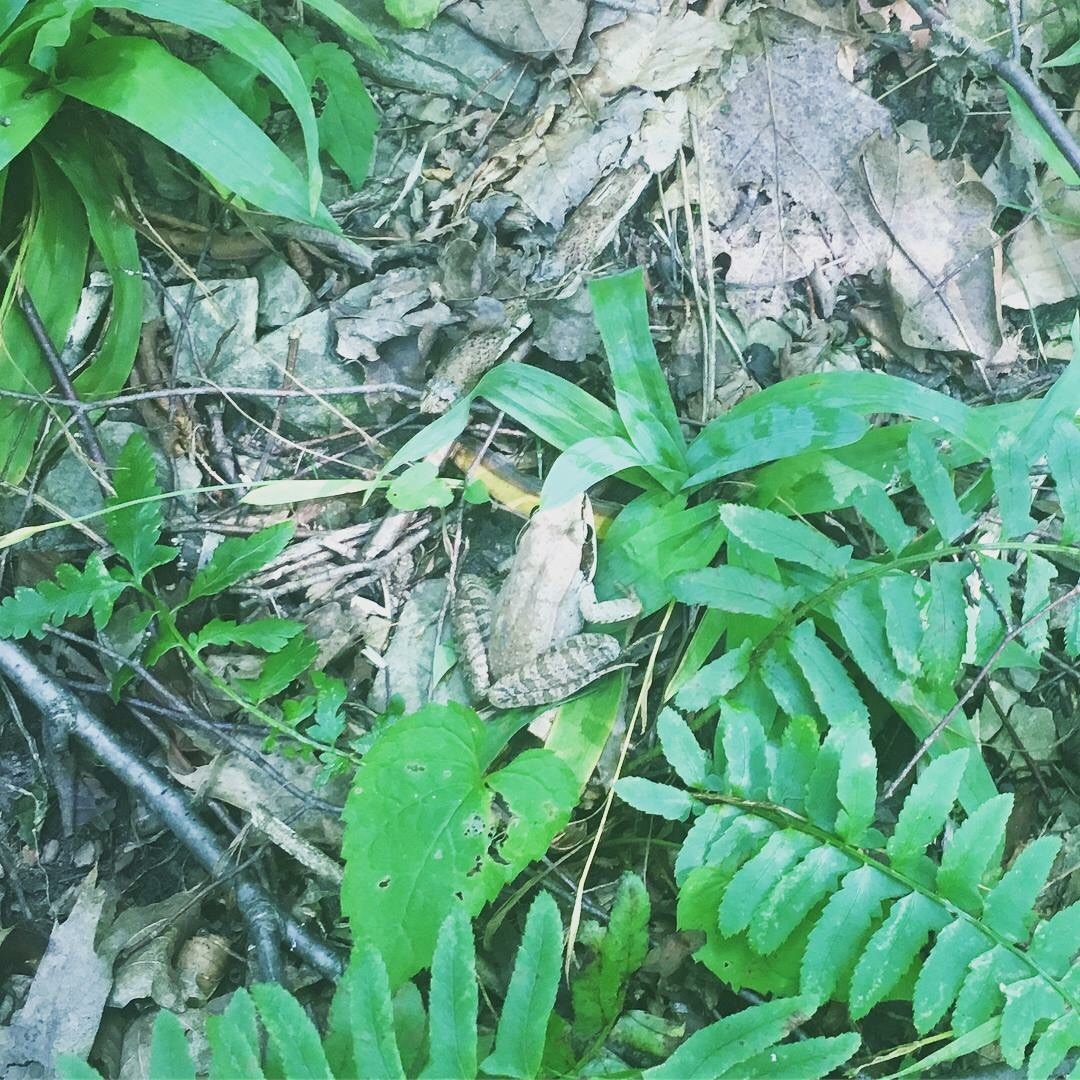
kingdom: Animalia
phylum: Chordata
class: Amphibia
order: Anura
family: Ranidae
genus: Lithobates
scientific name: Lithobates sylvaticus
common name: Wood frog
